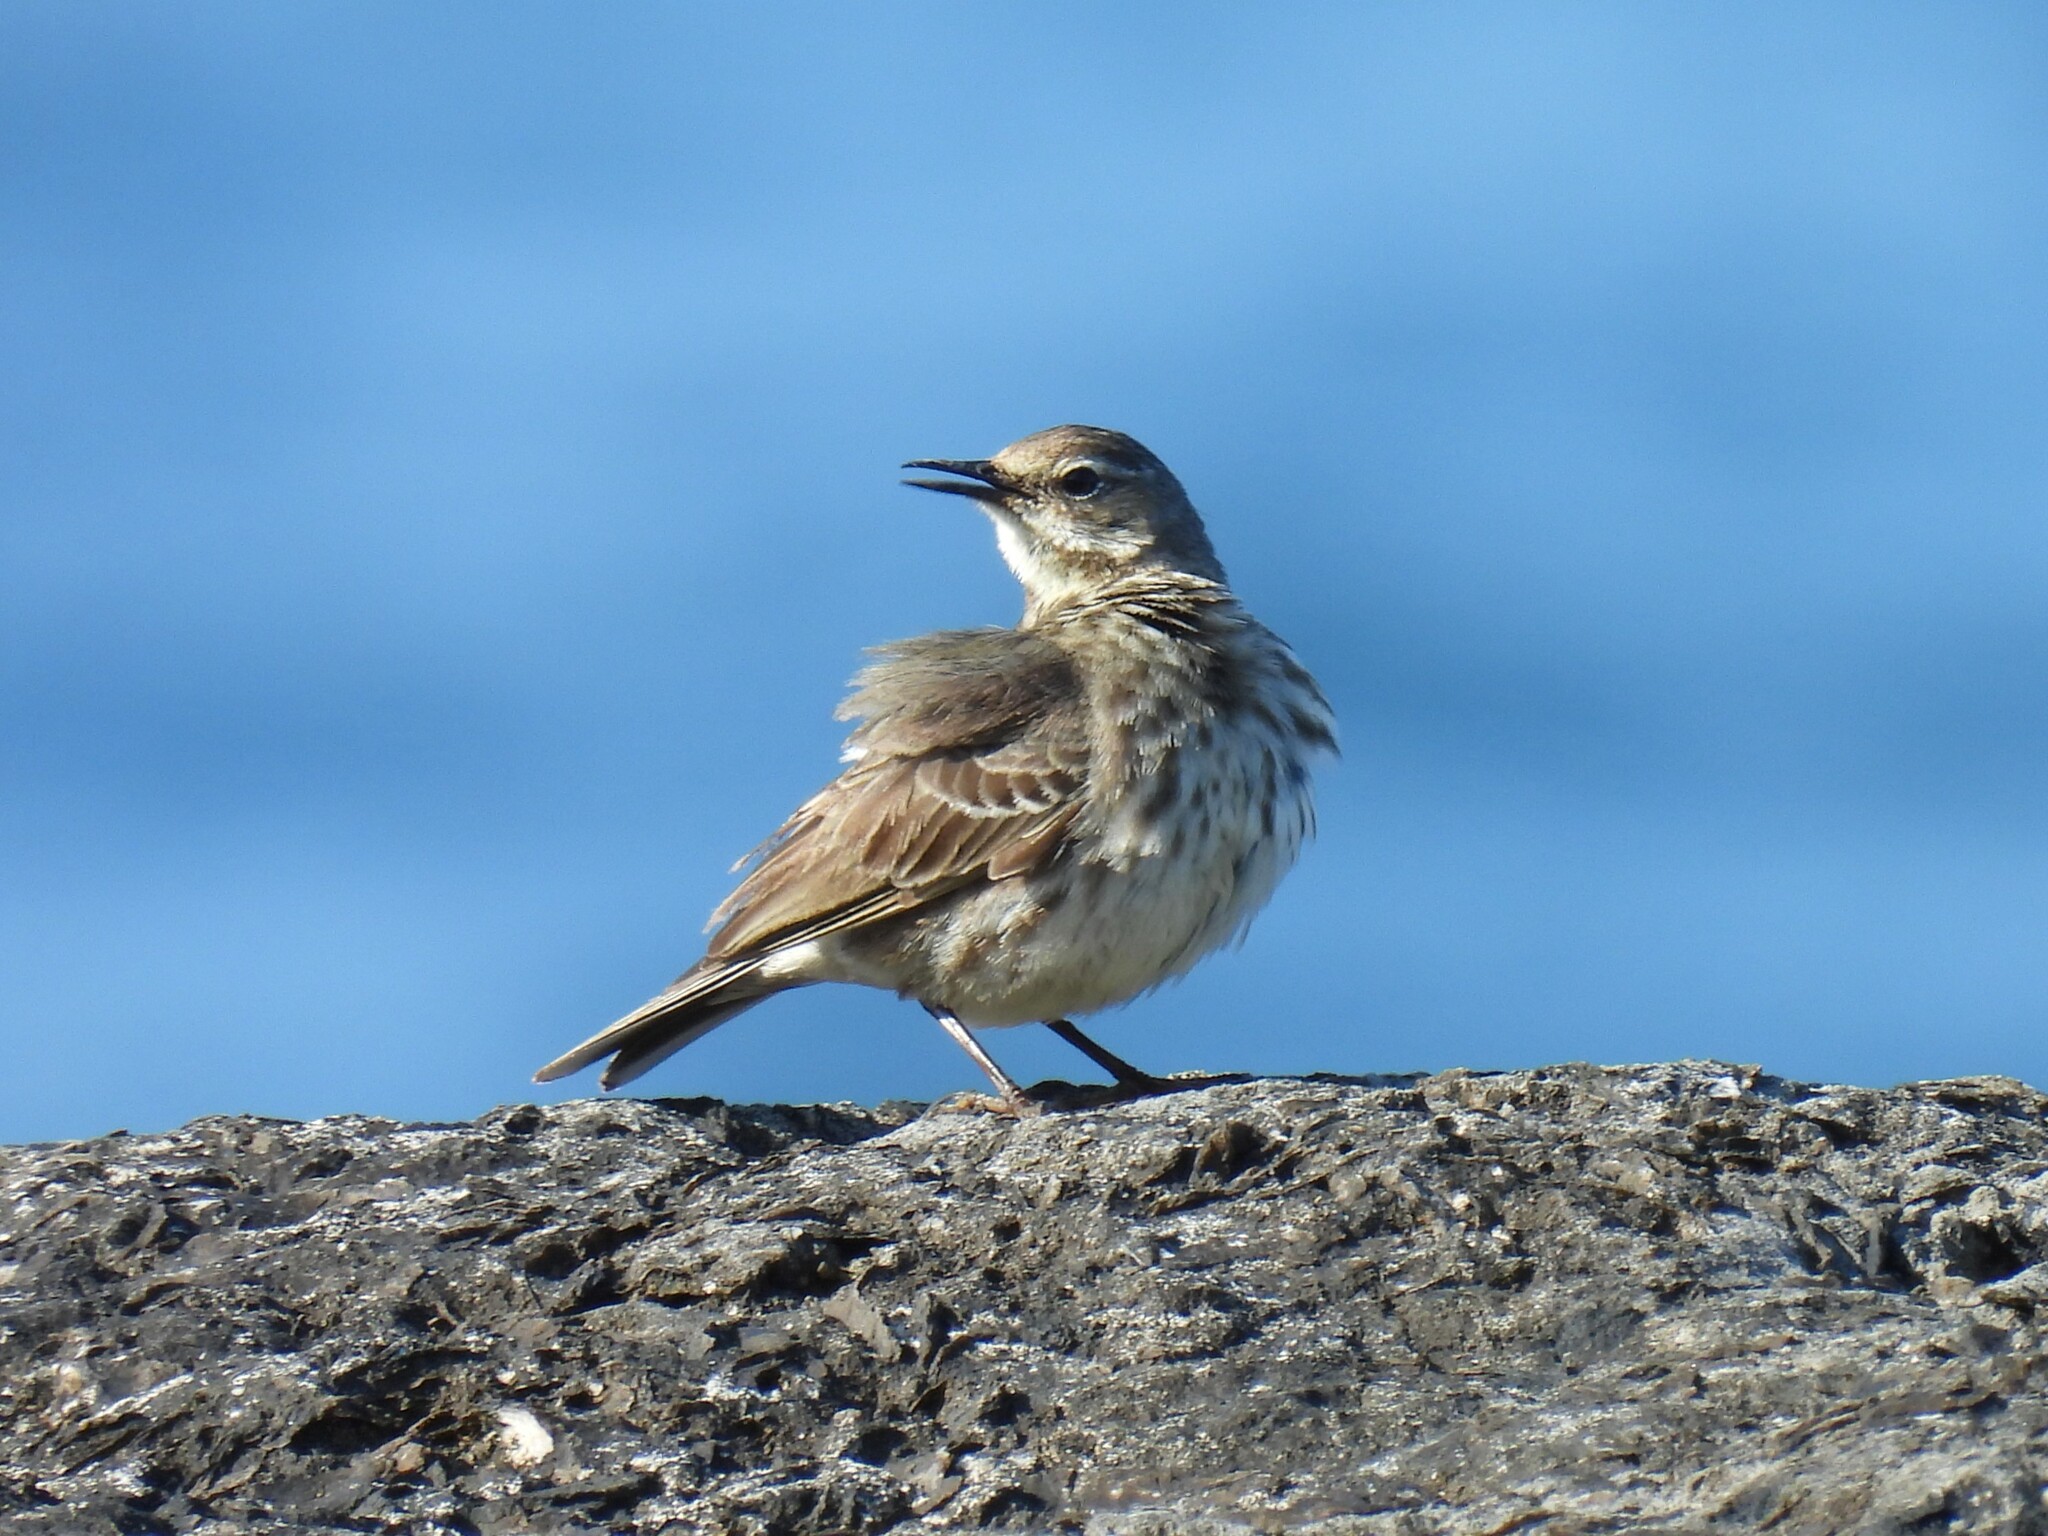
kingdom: Animalia
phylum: Chordata
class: Aves
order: Passeriformes
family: Motacillidae
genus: Anthus
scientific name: Anthus petrosus
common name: Eurasian rock pipit
